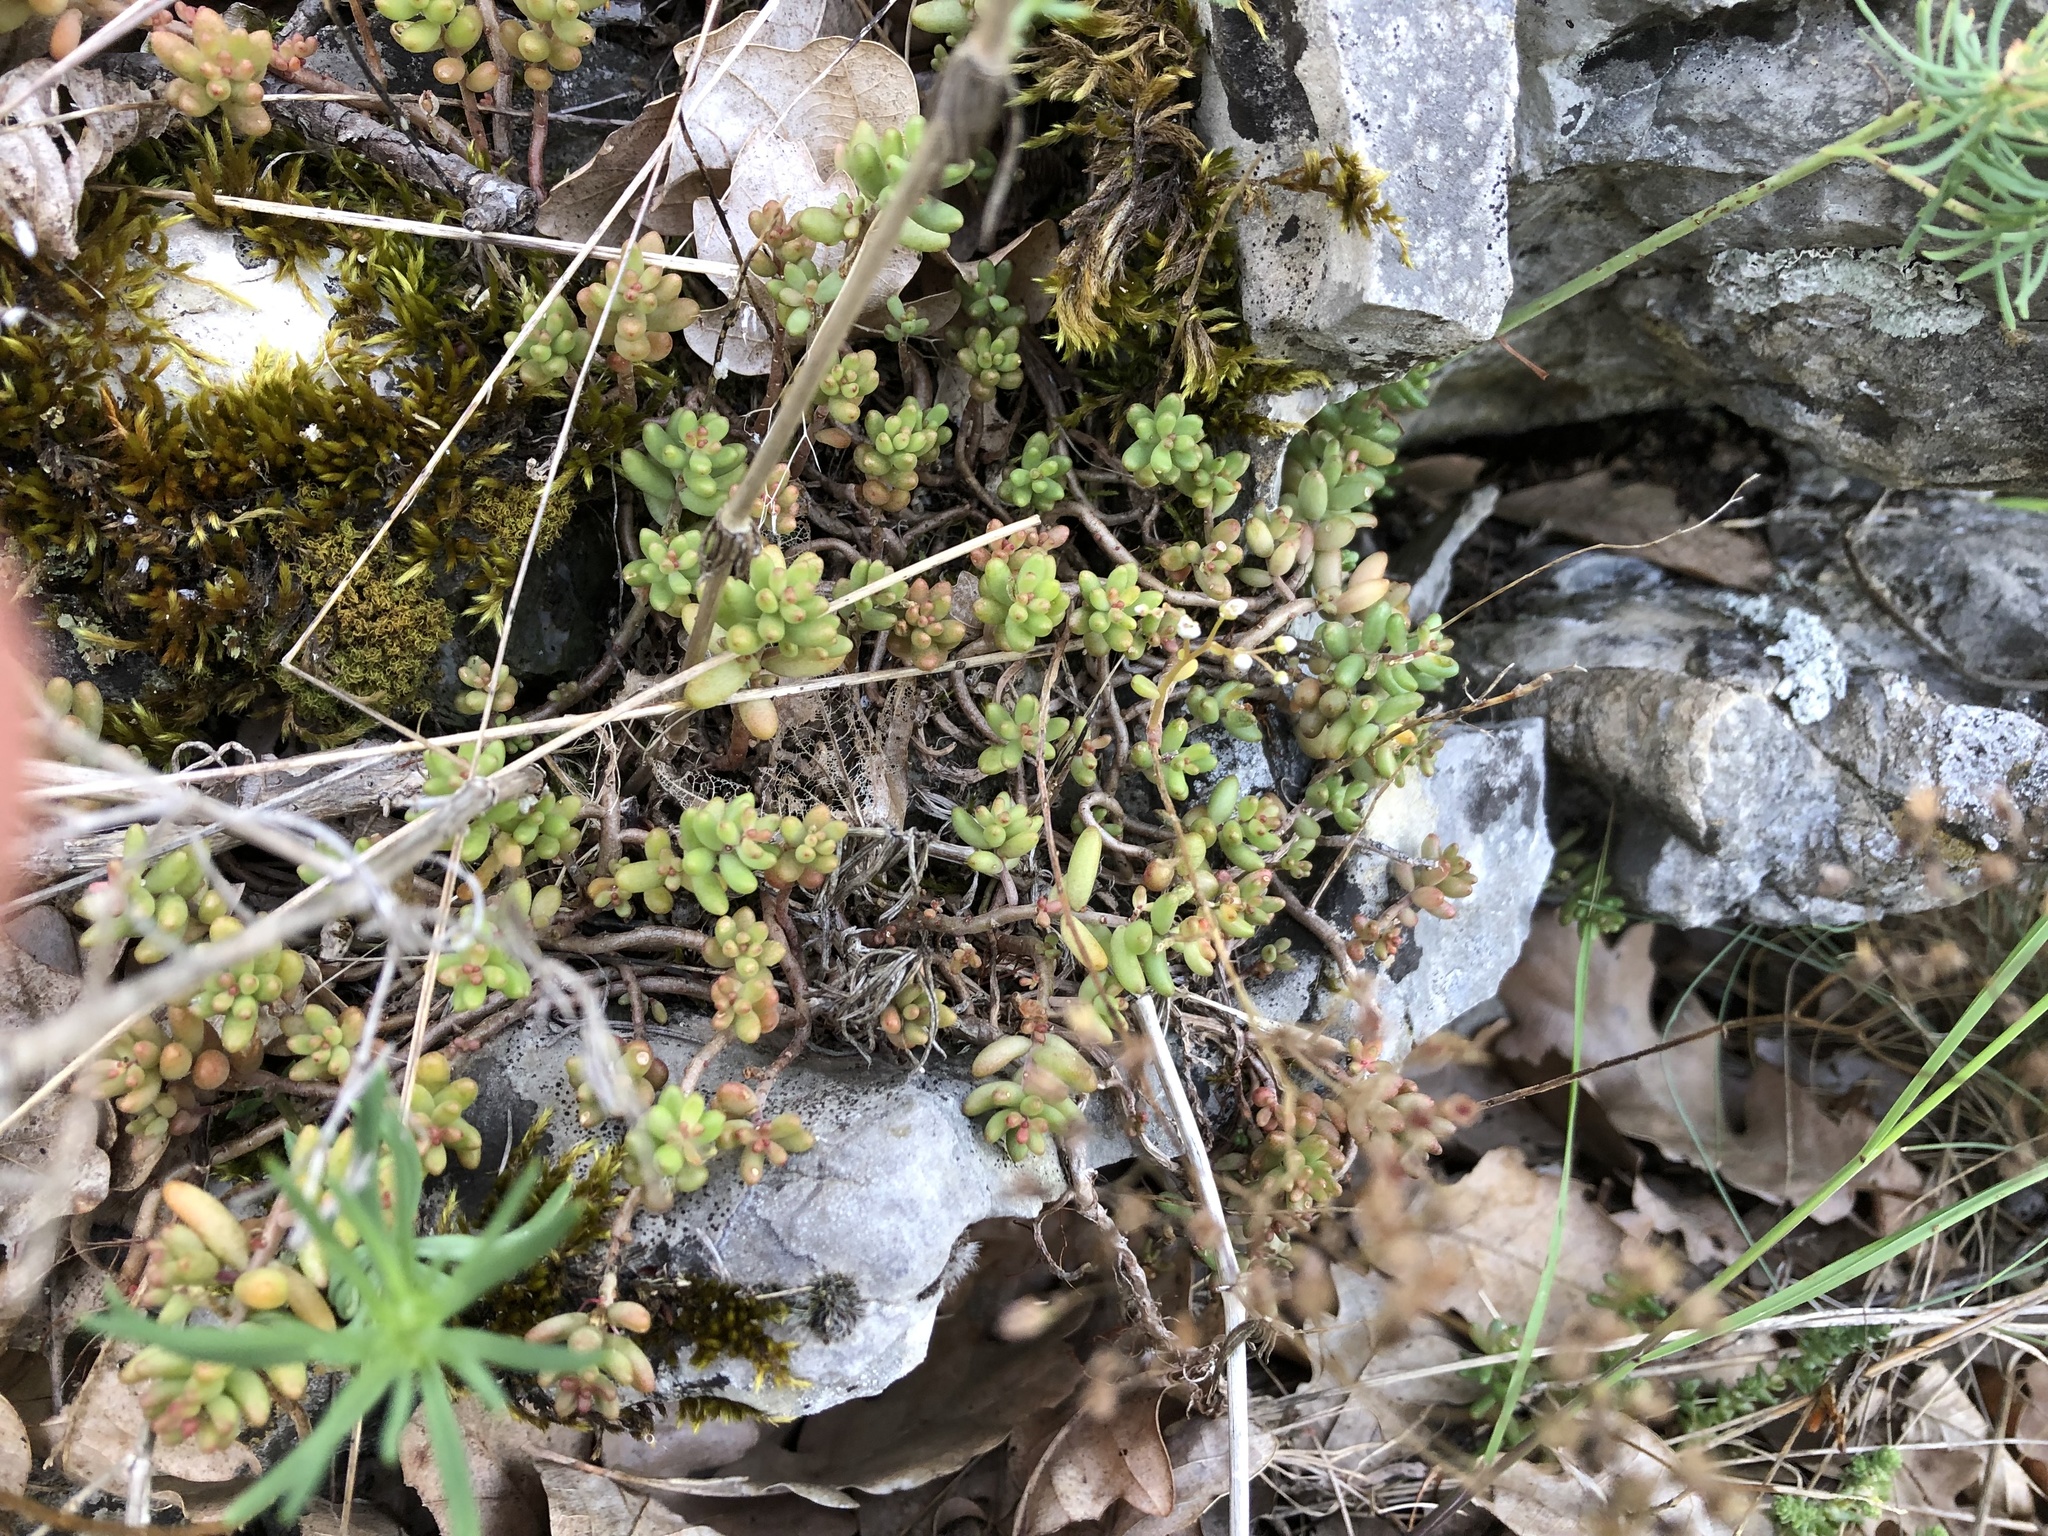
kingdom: Plantae
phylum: Tracheophyta
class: Magnoliopsida
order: Saxifragales
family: Crassulaceae
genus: Sedum
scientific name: Sedum album
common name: White stonecrop
